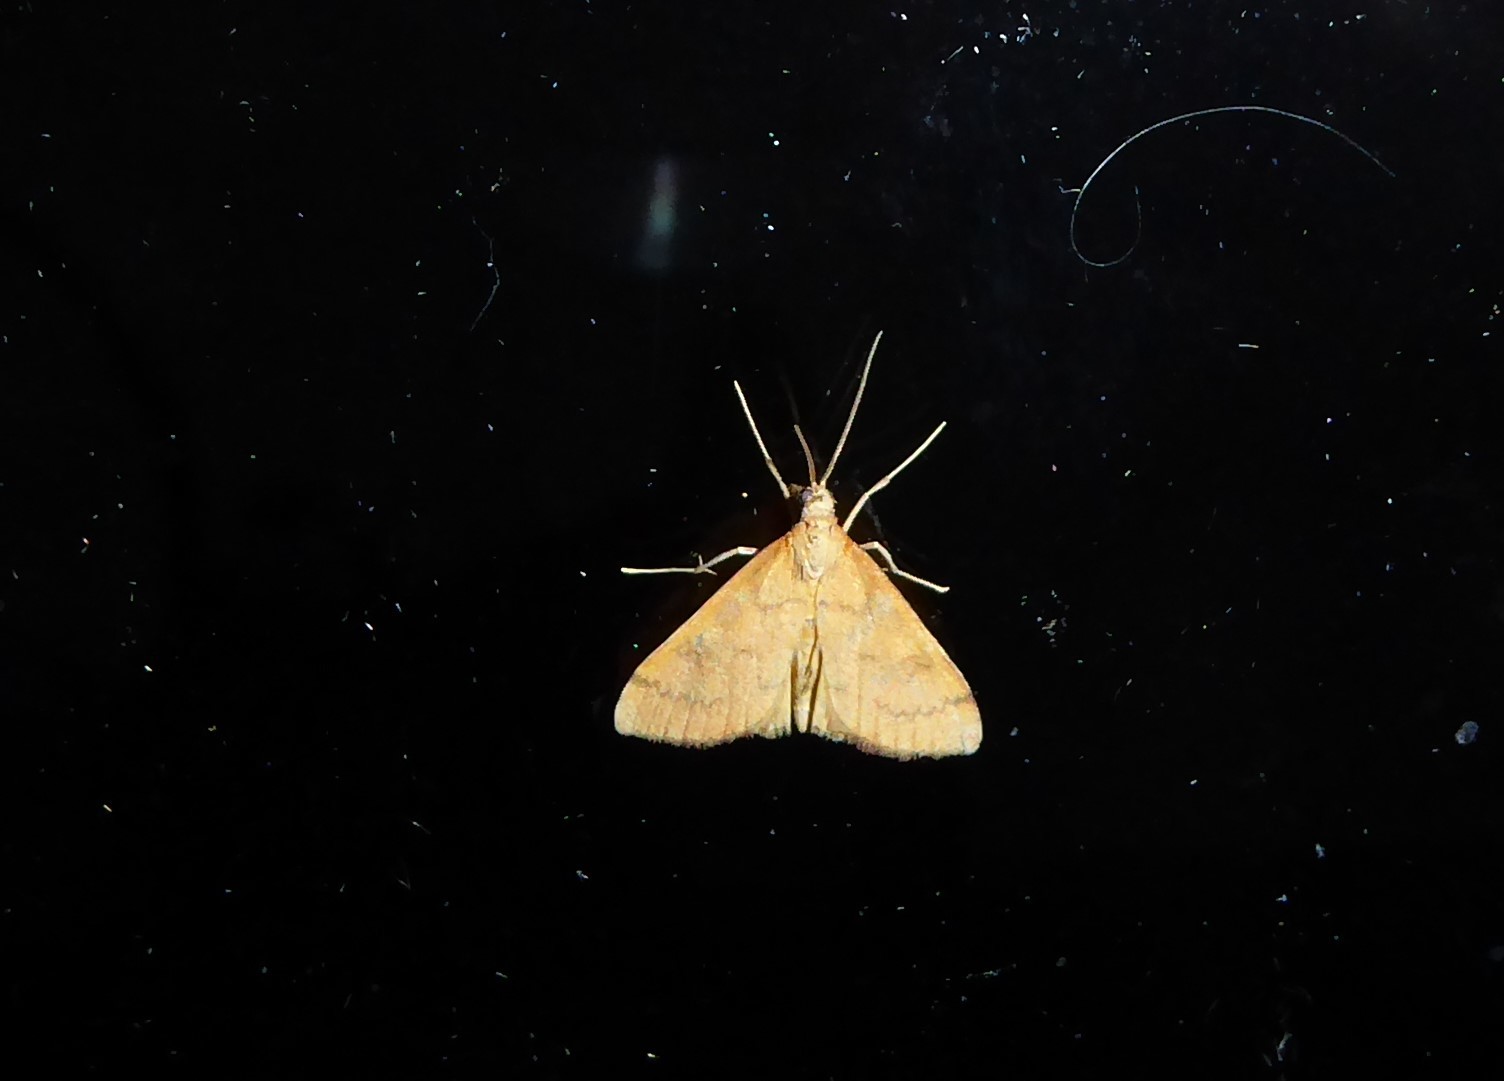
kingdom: Animalia
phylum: Arthropoda
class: Insecta
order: Lepidoptera
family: Crambidae
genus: Udea
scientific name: Udea Mnesictena flavidalis
